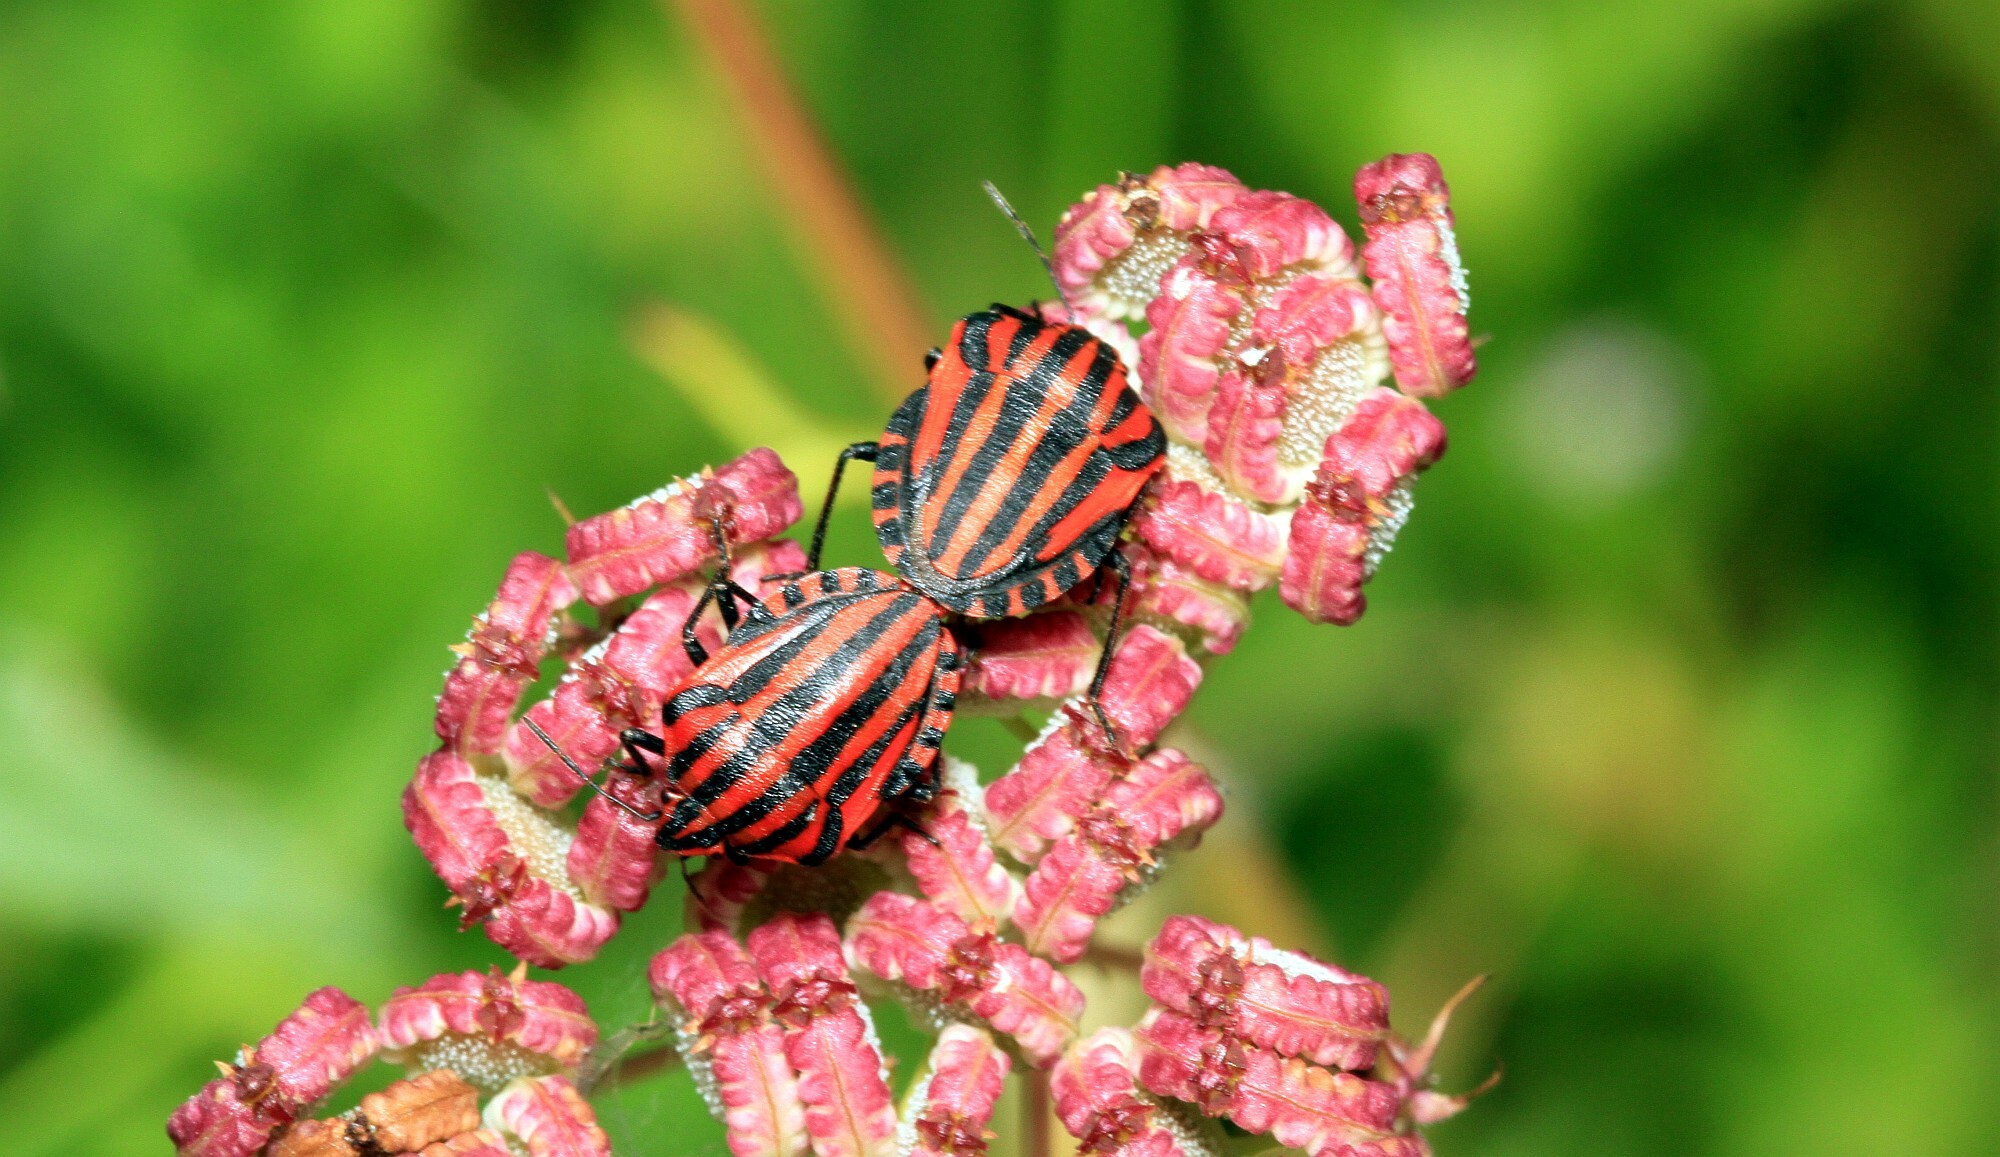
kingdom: Animalia
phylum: Arthropoda
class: Insecta
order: Hemiptera
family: Pentatomidae
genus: Graphosoma
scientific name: Graphosoma italicum
